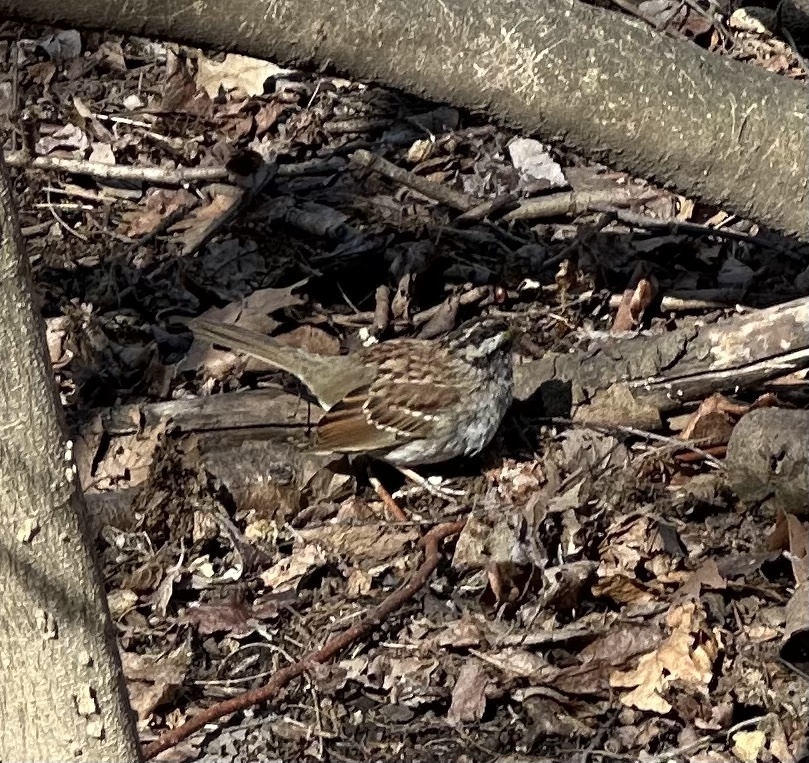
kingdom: Animalia
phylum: Chordata
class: Aves
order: Passeriformes
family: Passerellidae
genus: Zonotrichia
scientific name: Zonotrichia albicollis
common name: White-throated sparrow
